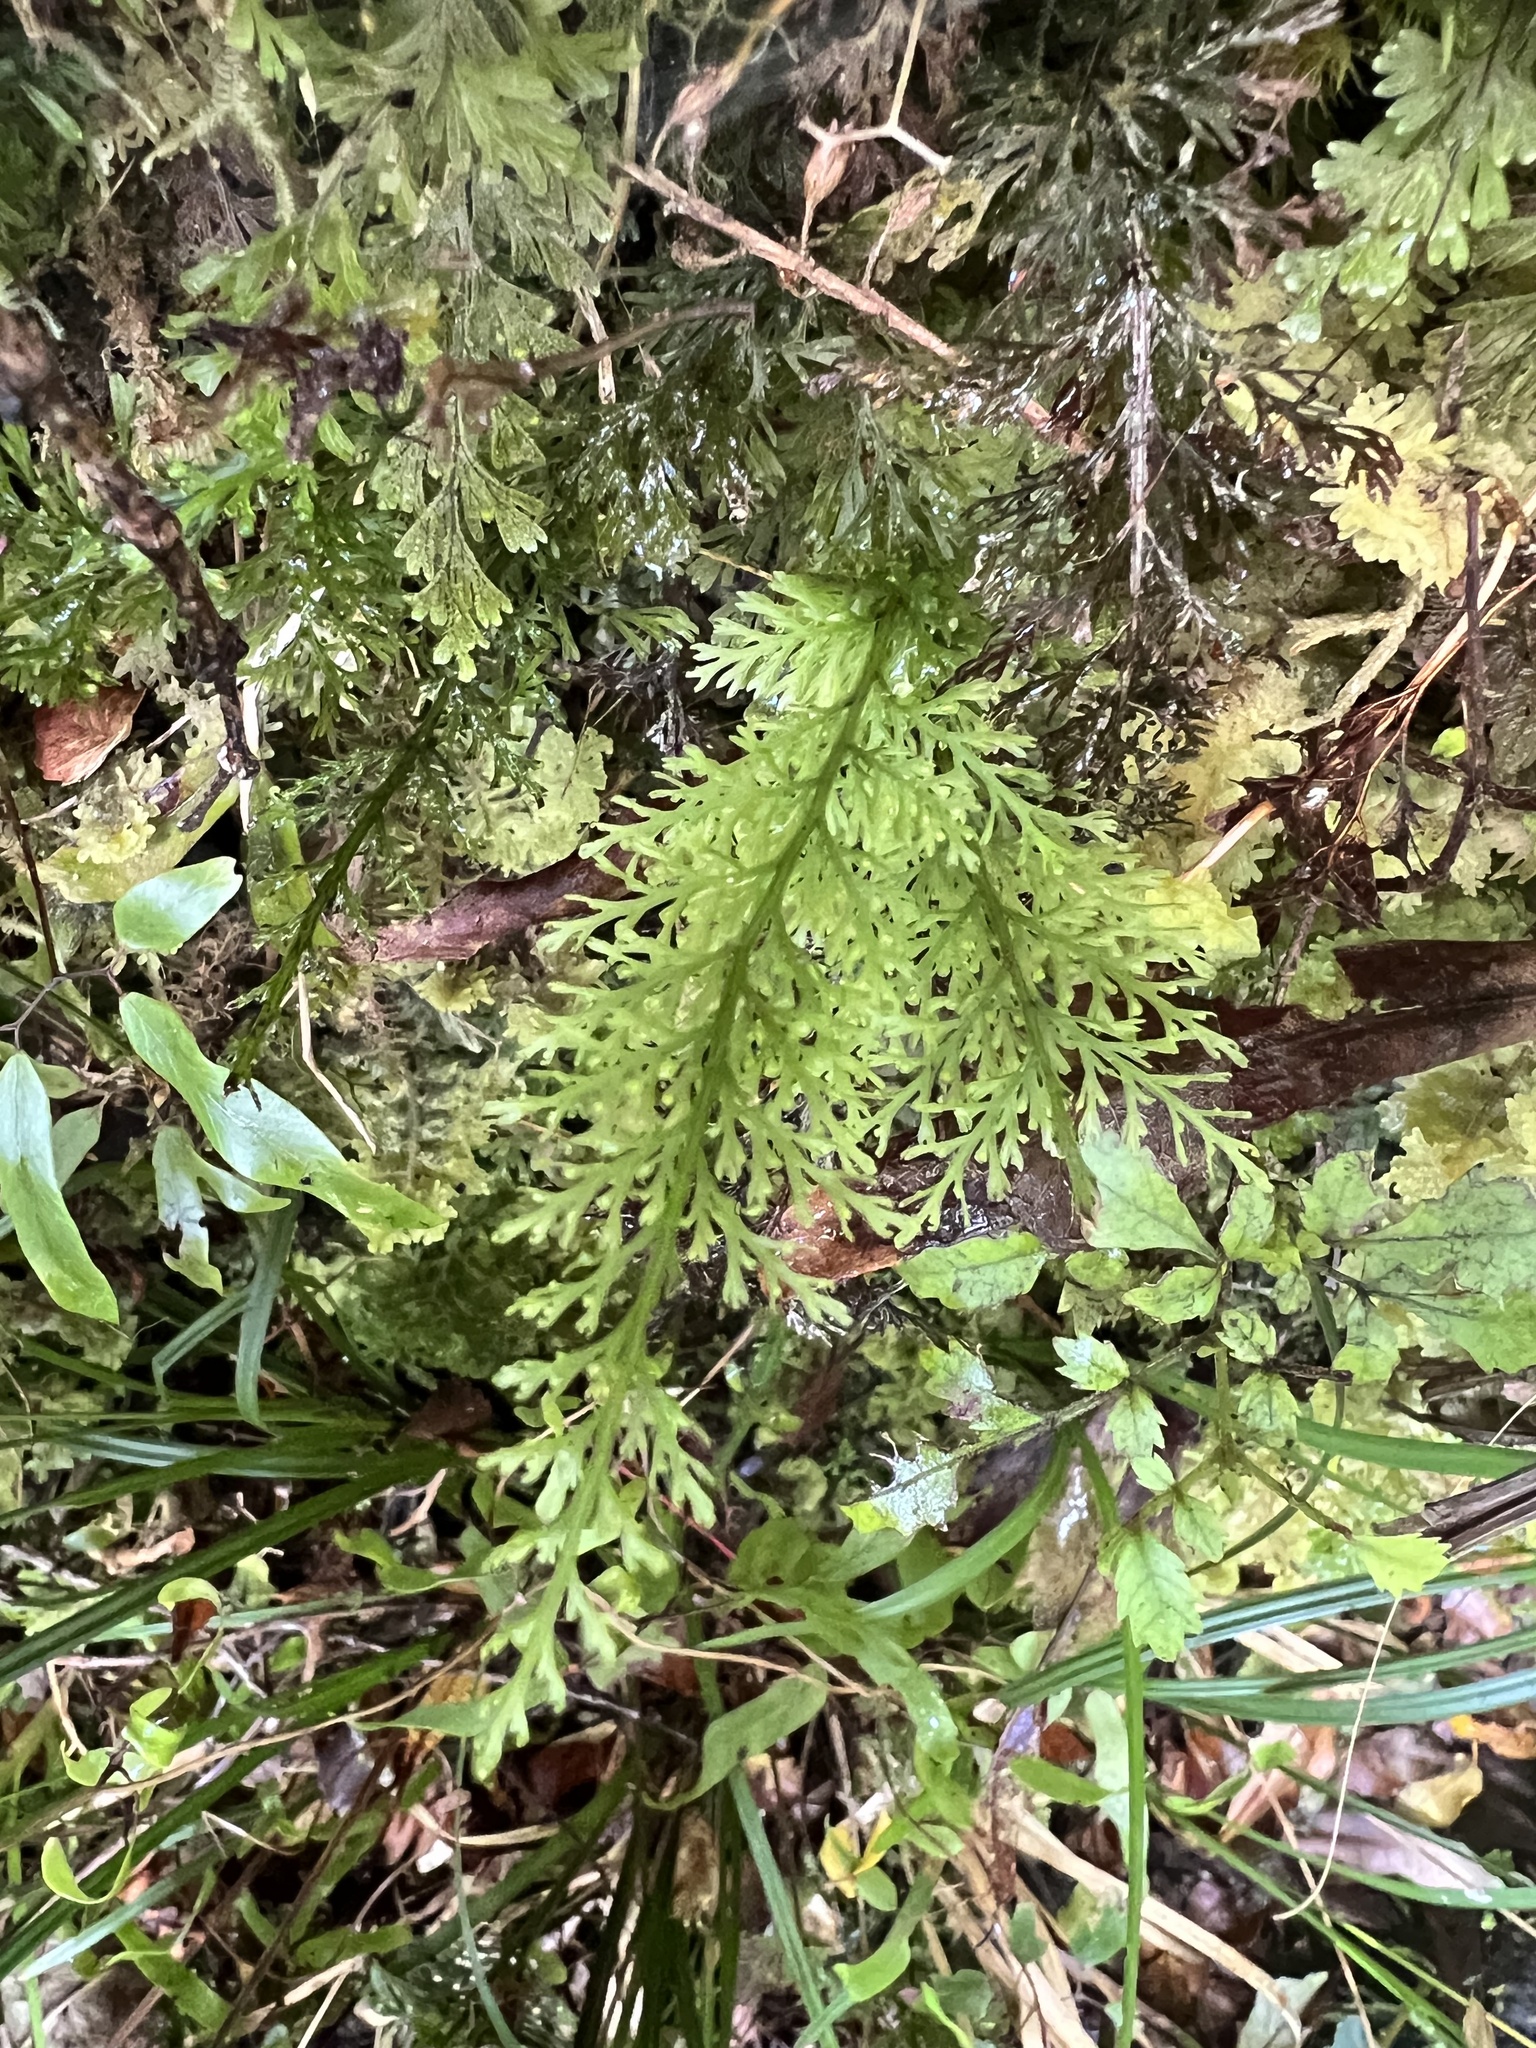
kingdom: Plantae
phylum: Tracheophyta
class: Polypodiopsida
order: Hymenophyllales
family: Hymenophyllaceae
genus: Abrodictyum
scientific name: Abrodictyum strictum
